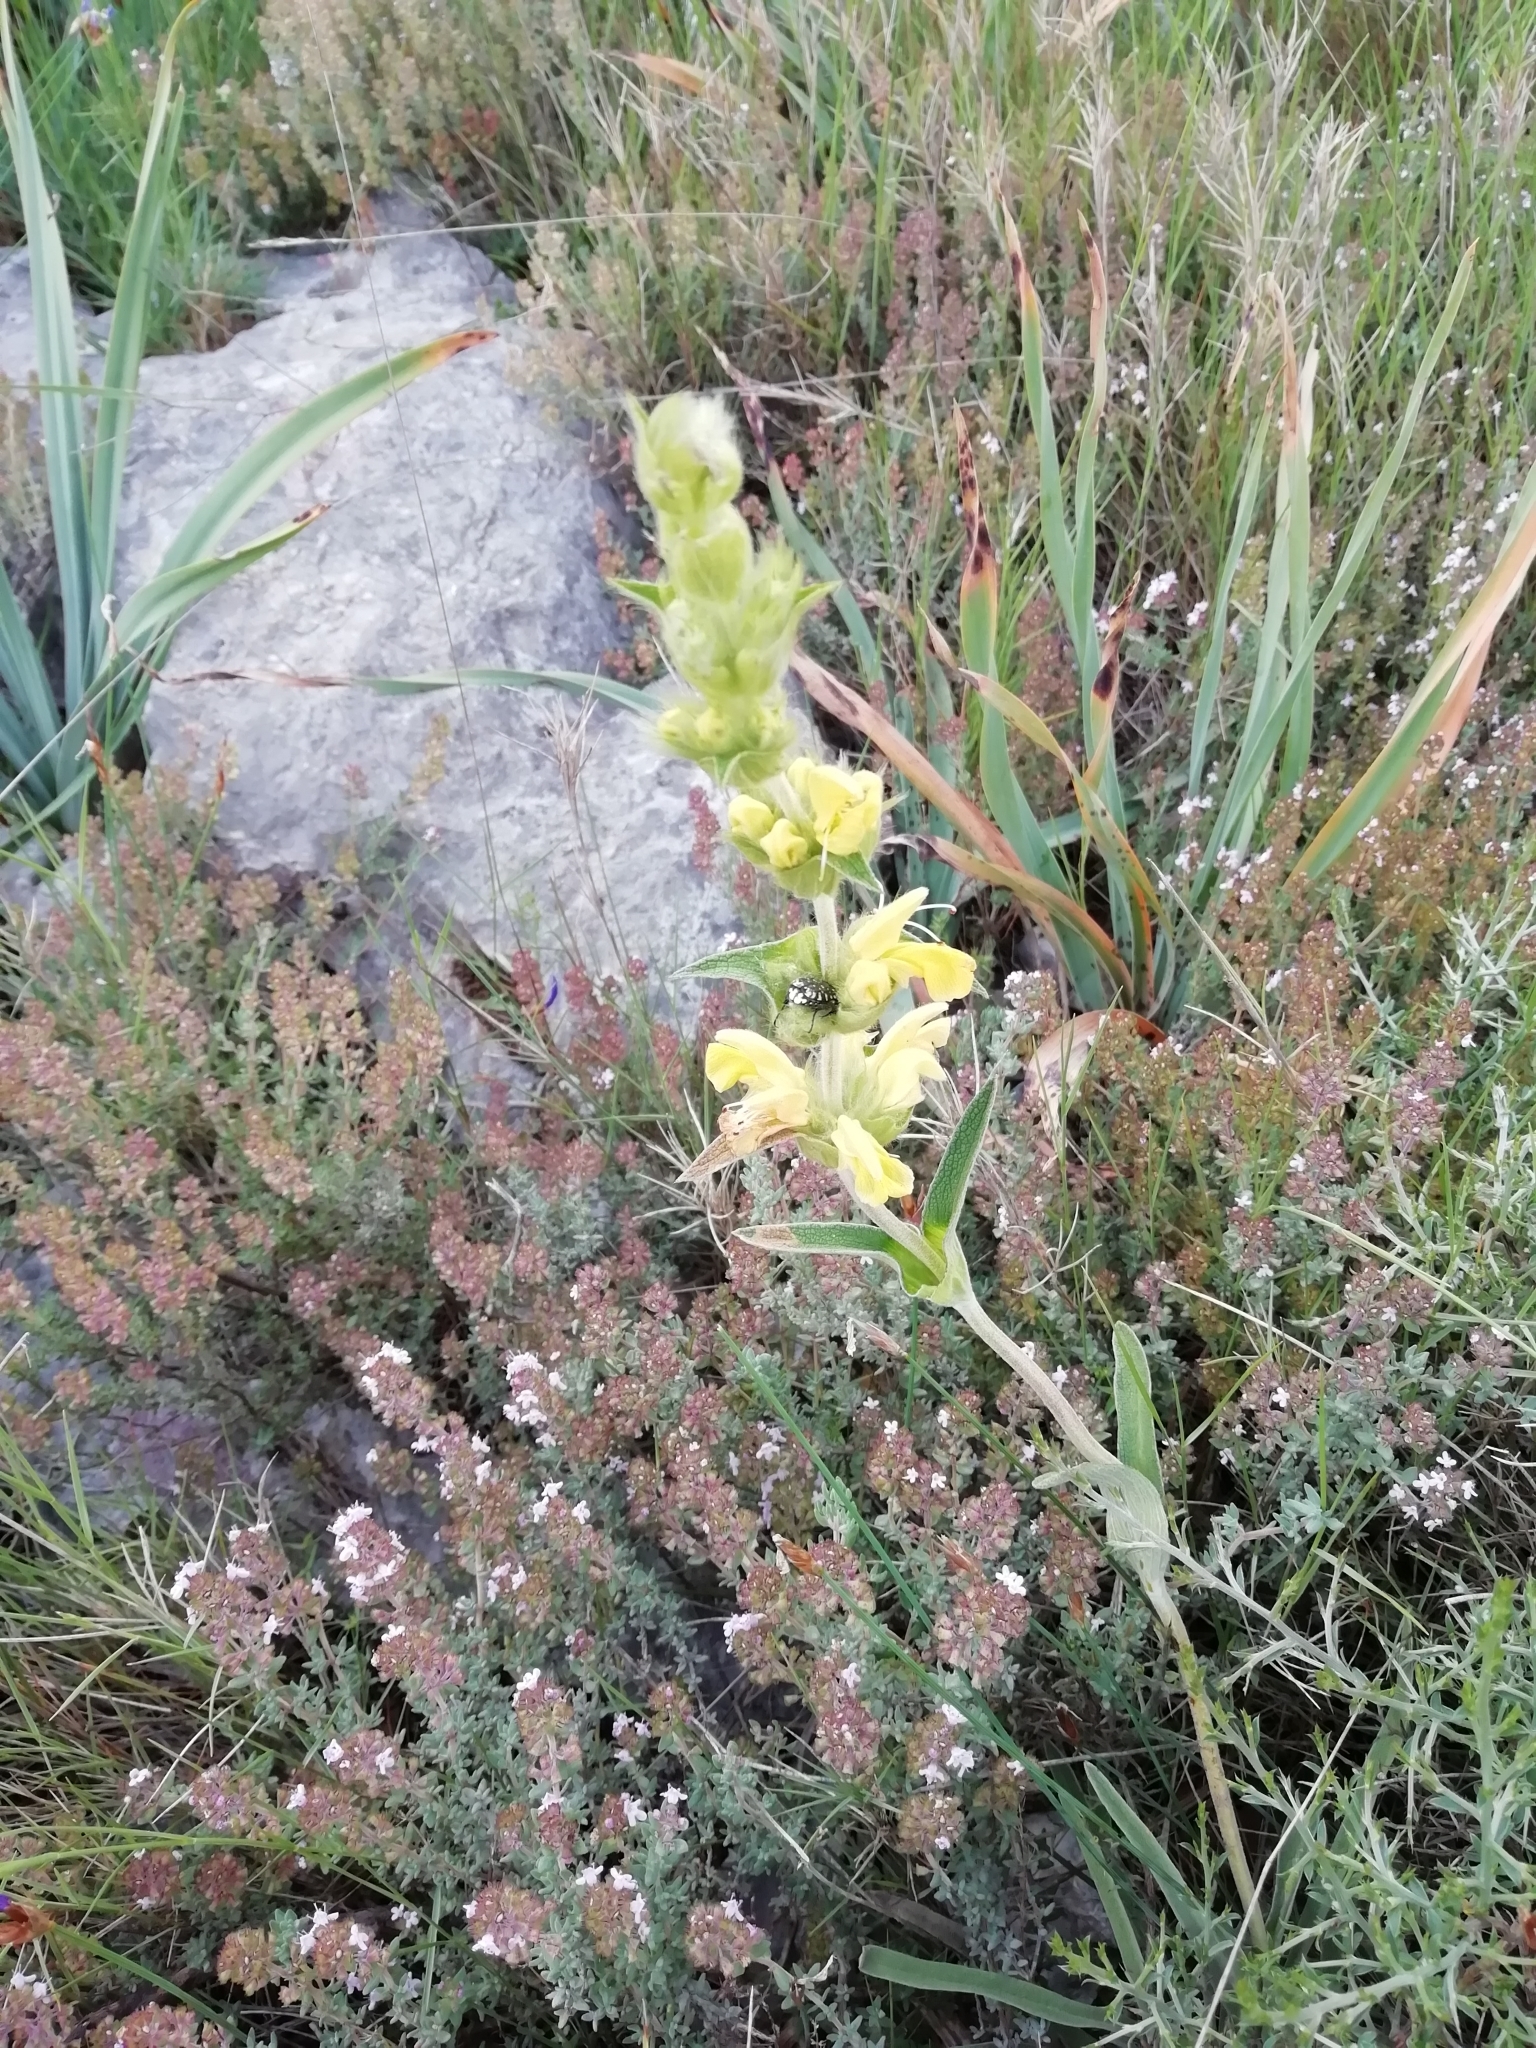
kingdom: Plantae
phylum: Tracheophyta
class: Magnoliopsida
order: Lamiales
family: Lamiaceae
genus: Phlomis
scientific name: Phlomis lychnitis
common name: Lampwickplant
